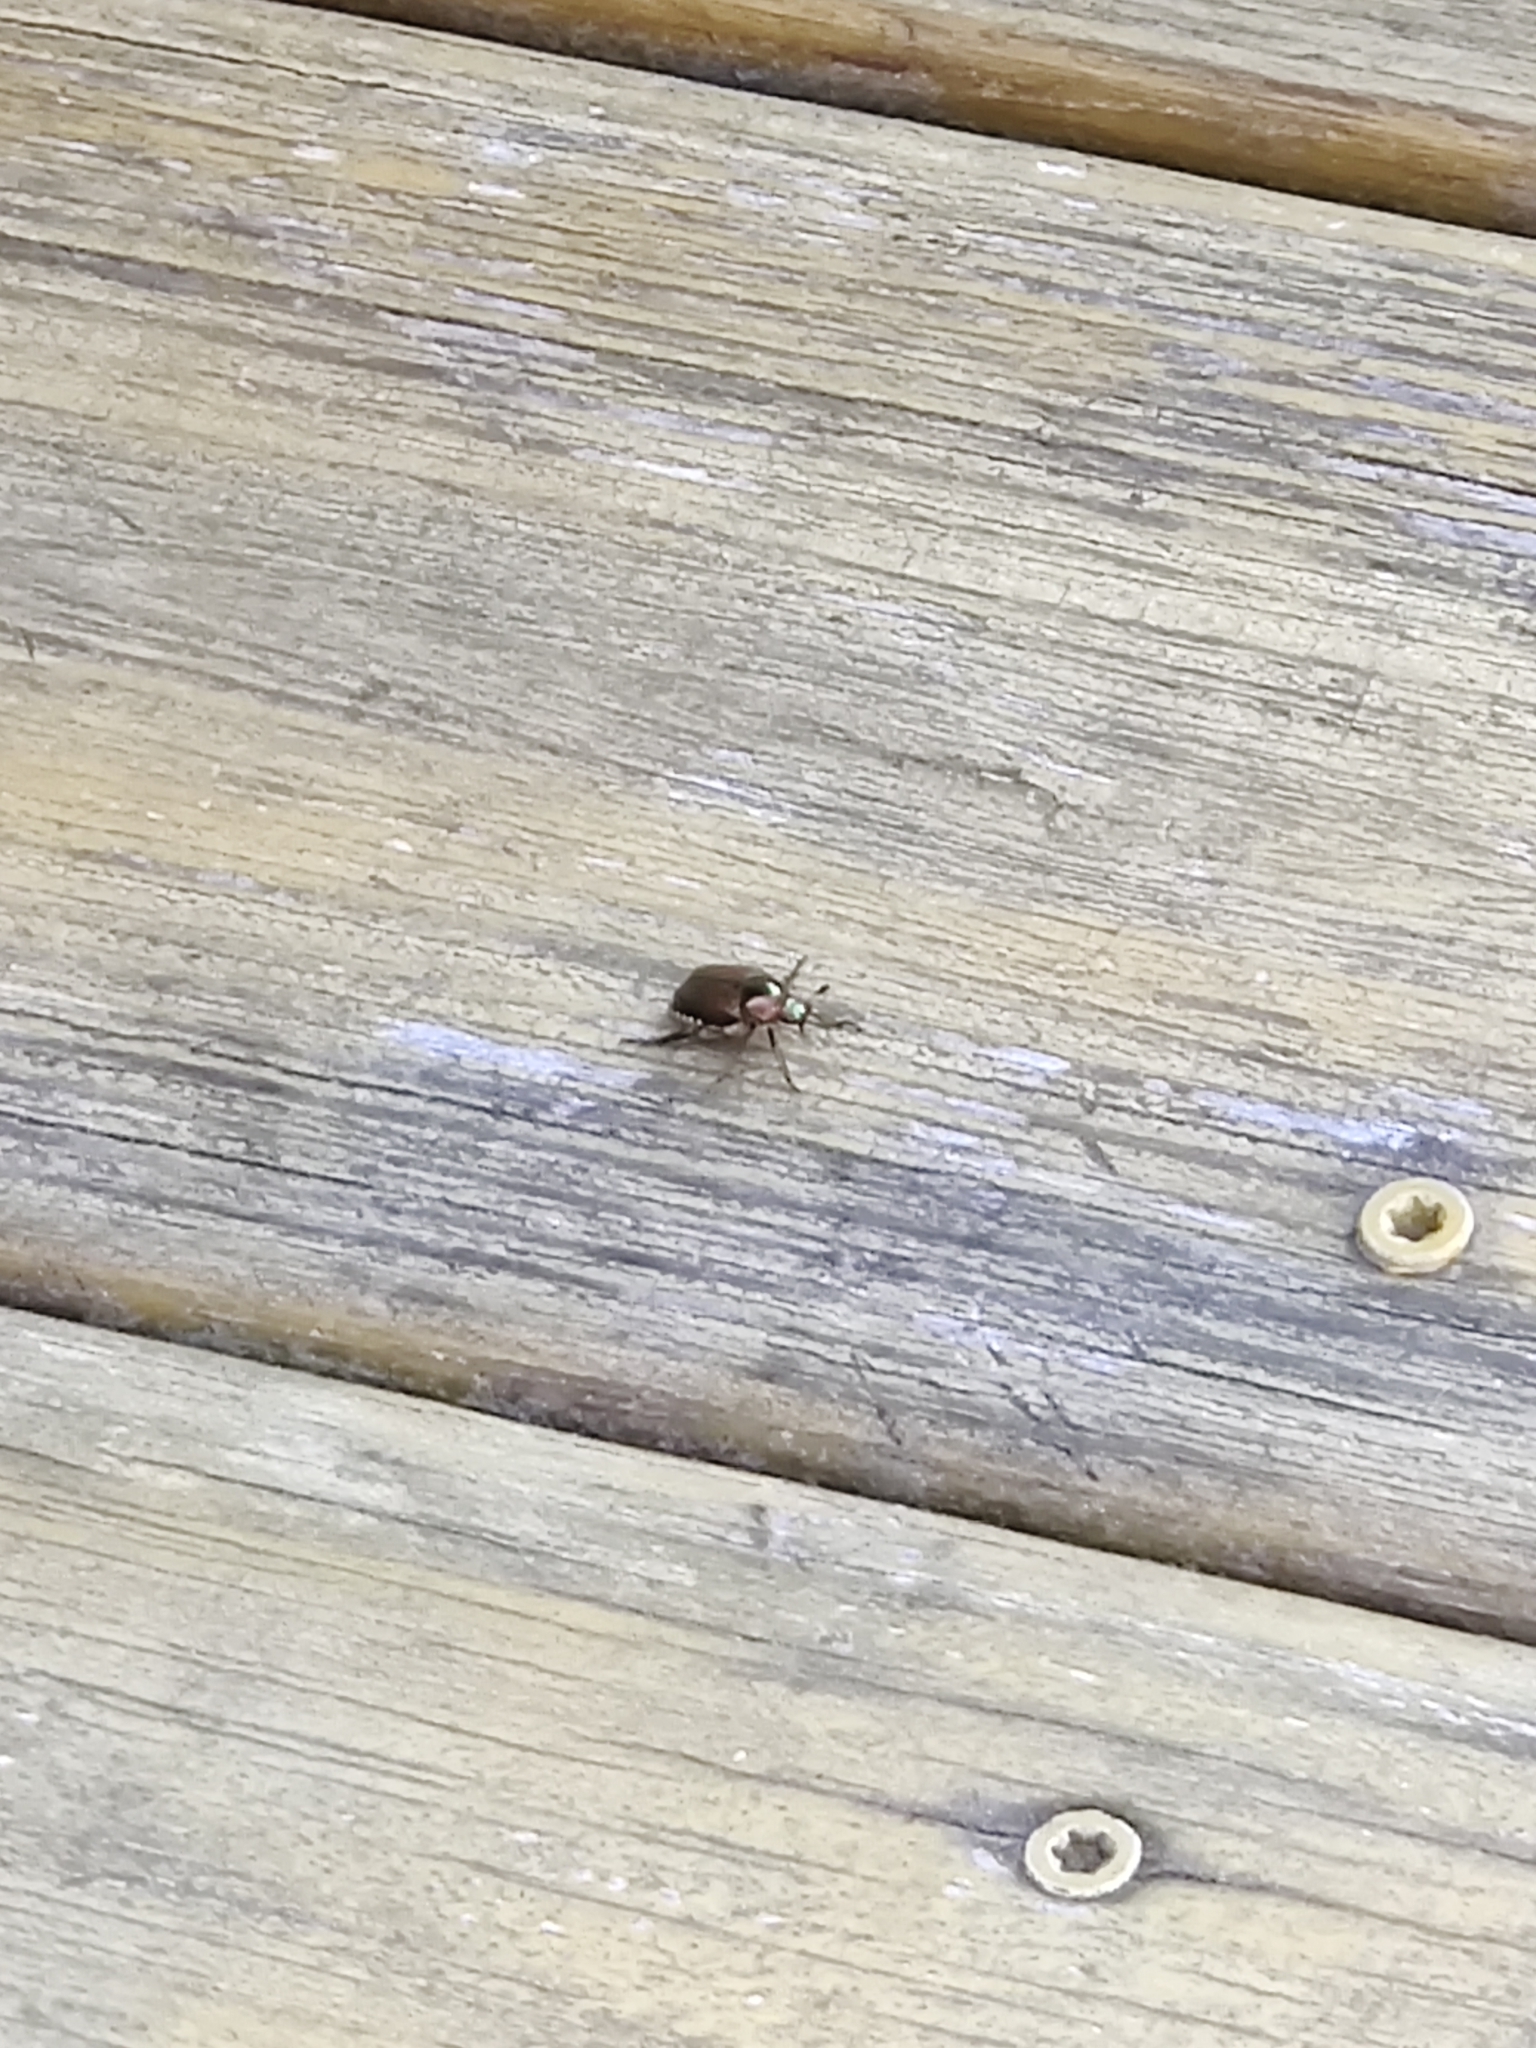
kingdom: Animalia
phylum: Arthropoda
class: Insecta
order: Coleoptera
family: Scarabaeidae
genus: Popillia
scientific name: Popillia japonica
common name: Japanese beetle
